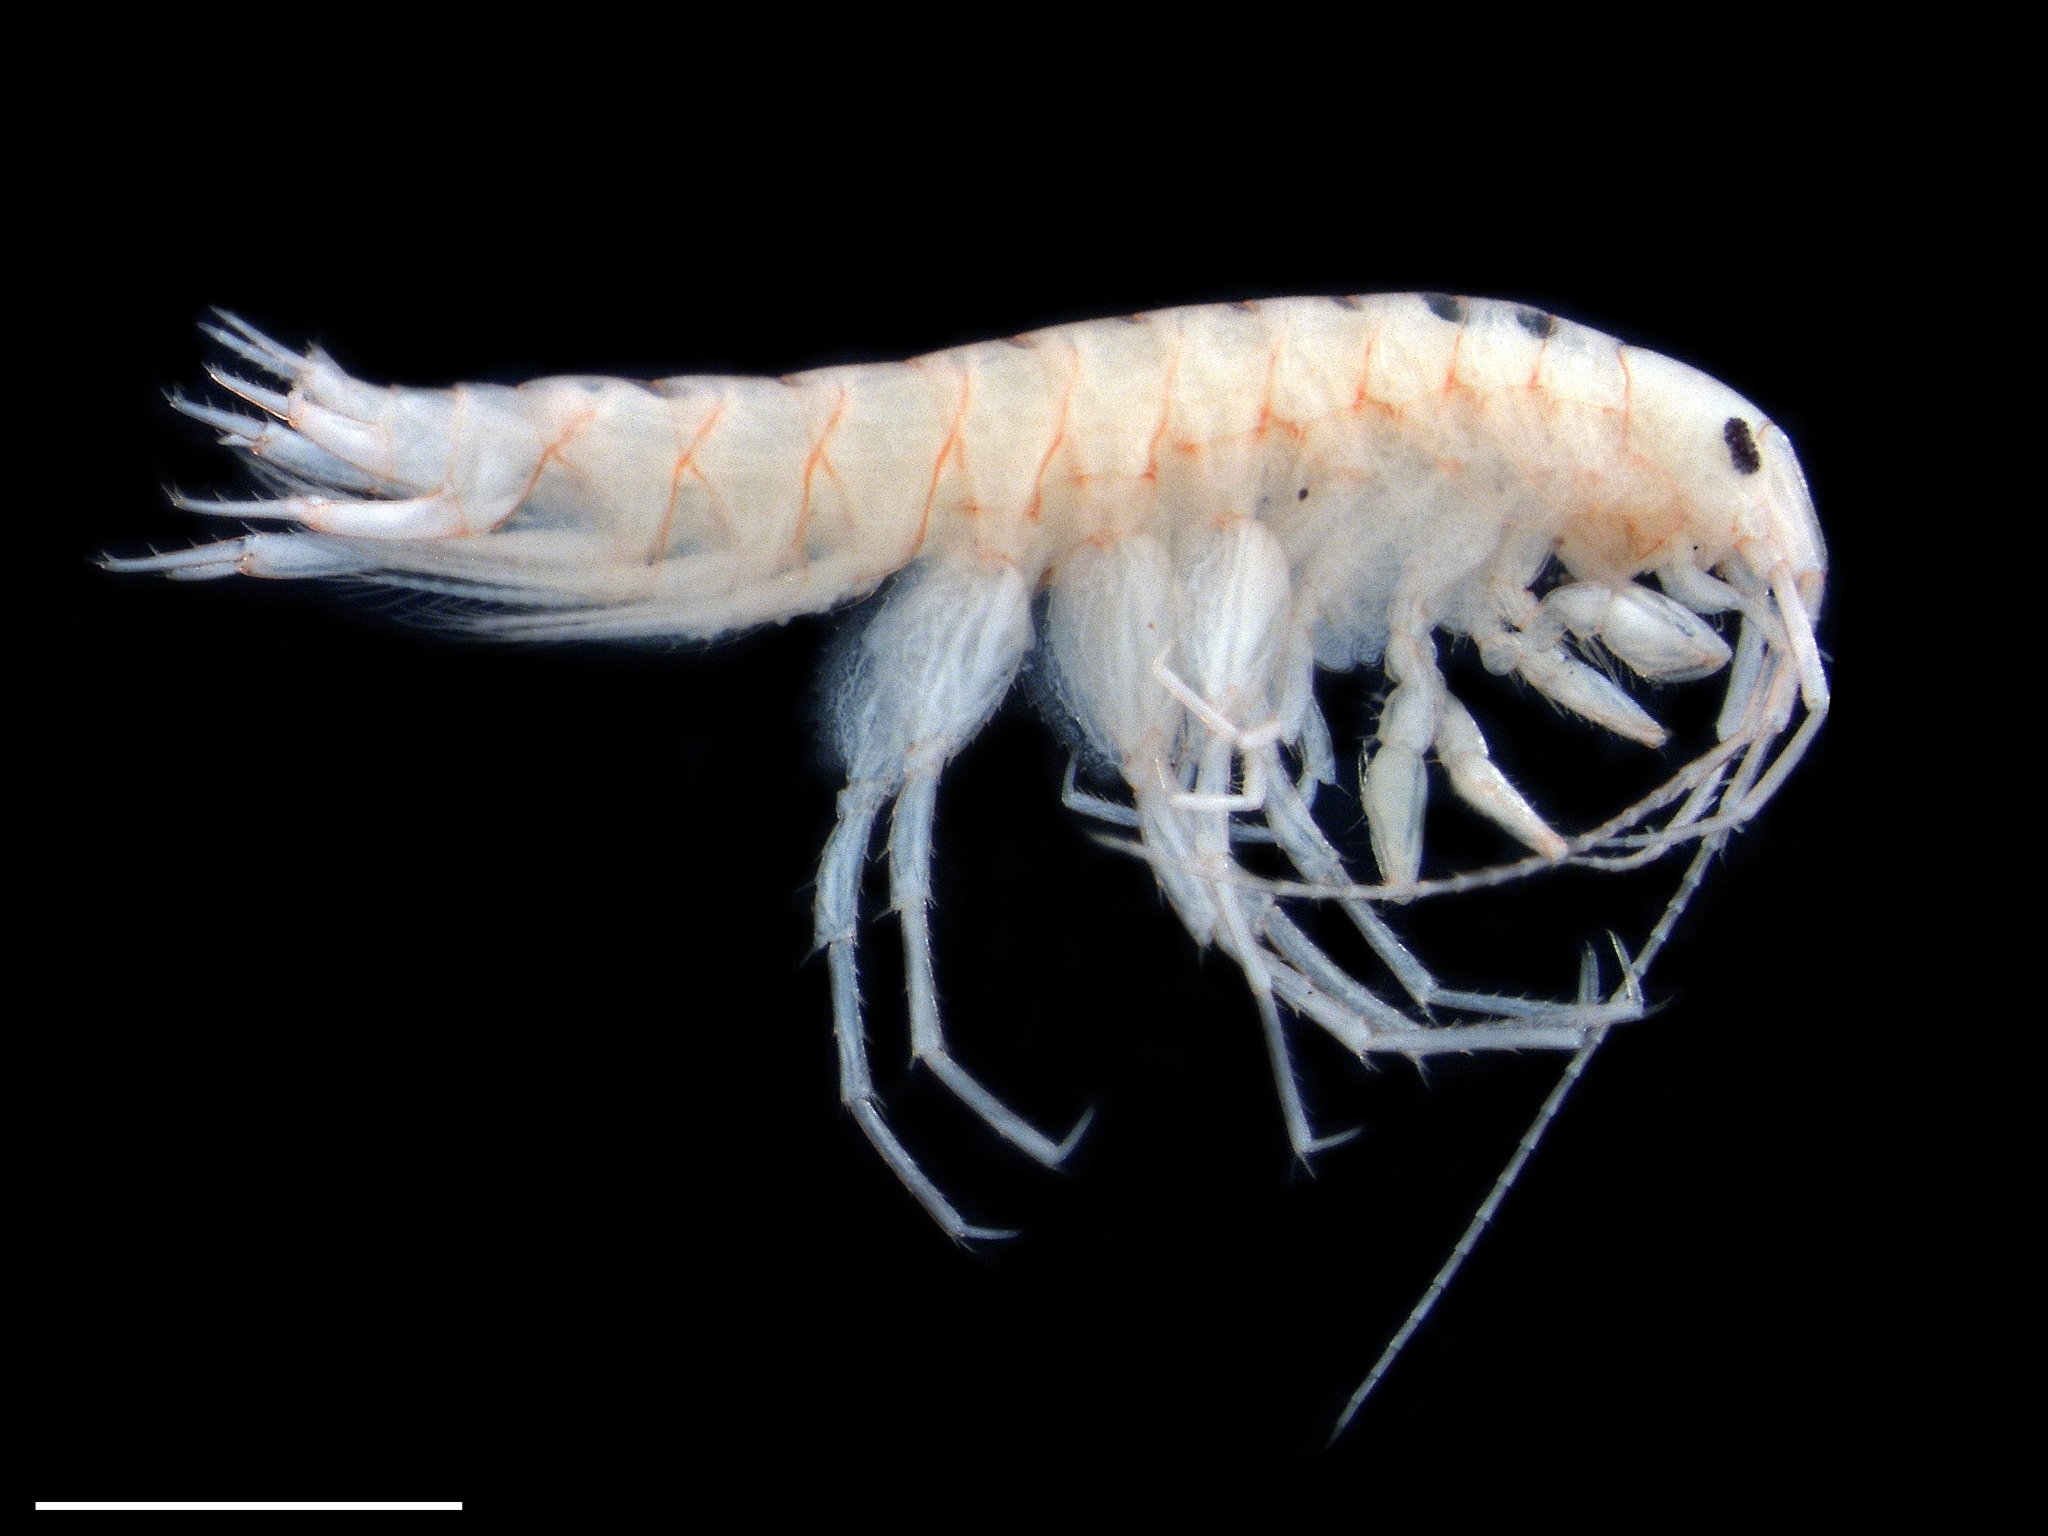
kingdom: Animalia
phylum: Arthropoda
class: Malacostraca
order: Amphipoda
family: Crangonyctidae
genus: Crangonyx
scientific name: Crangonyx apalachee
